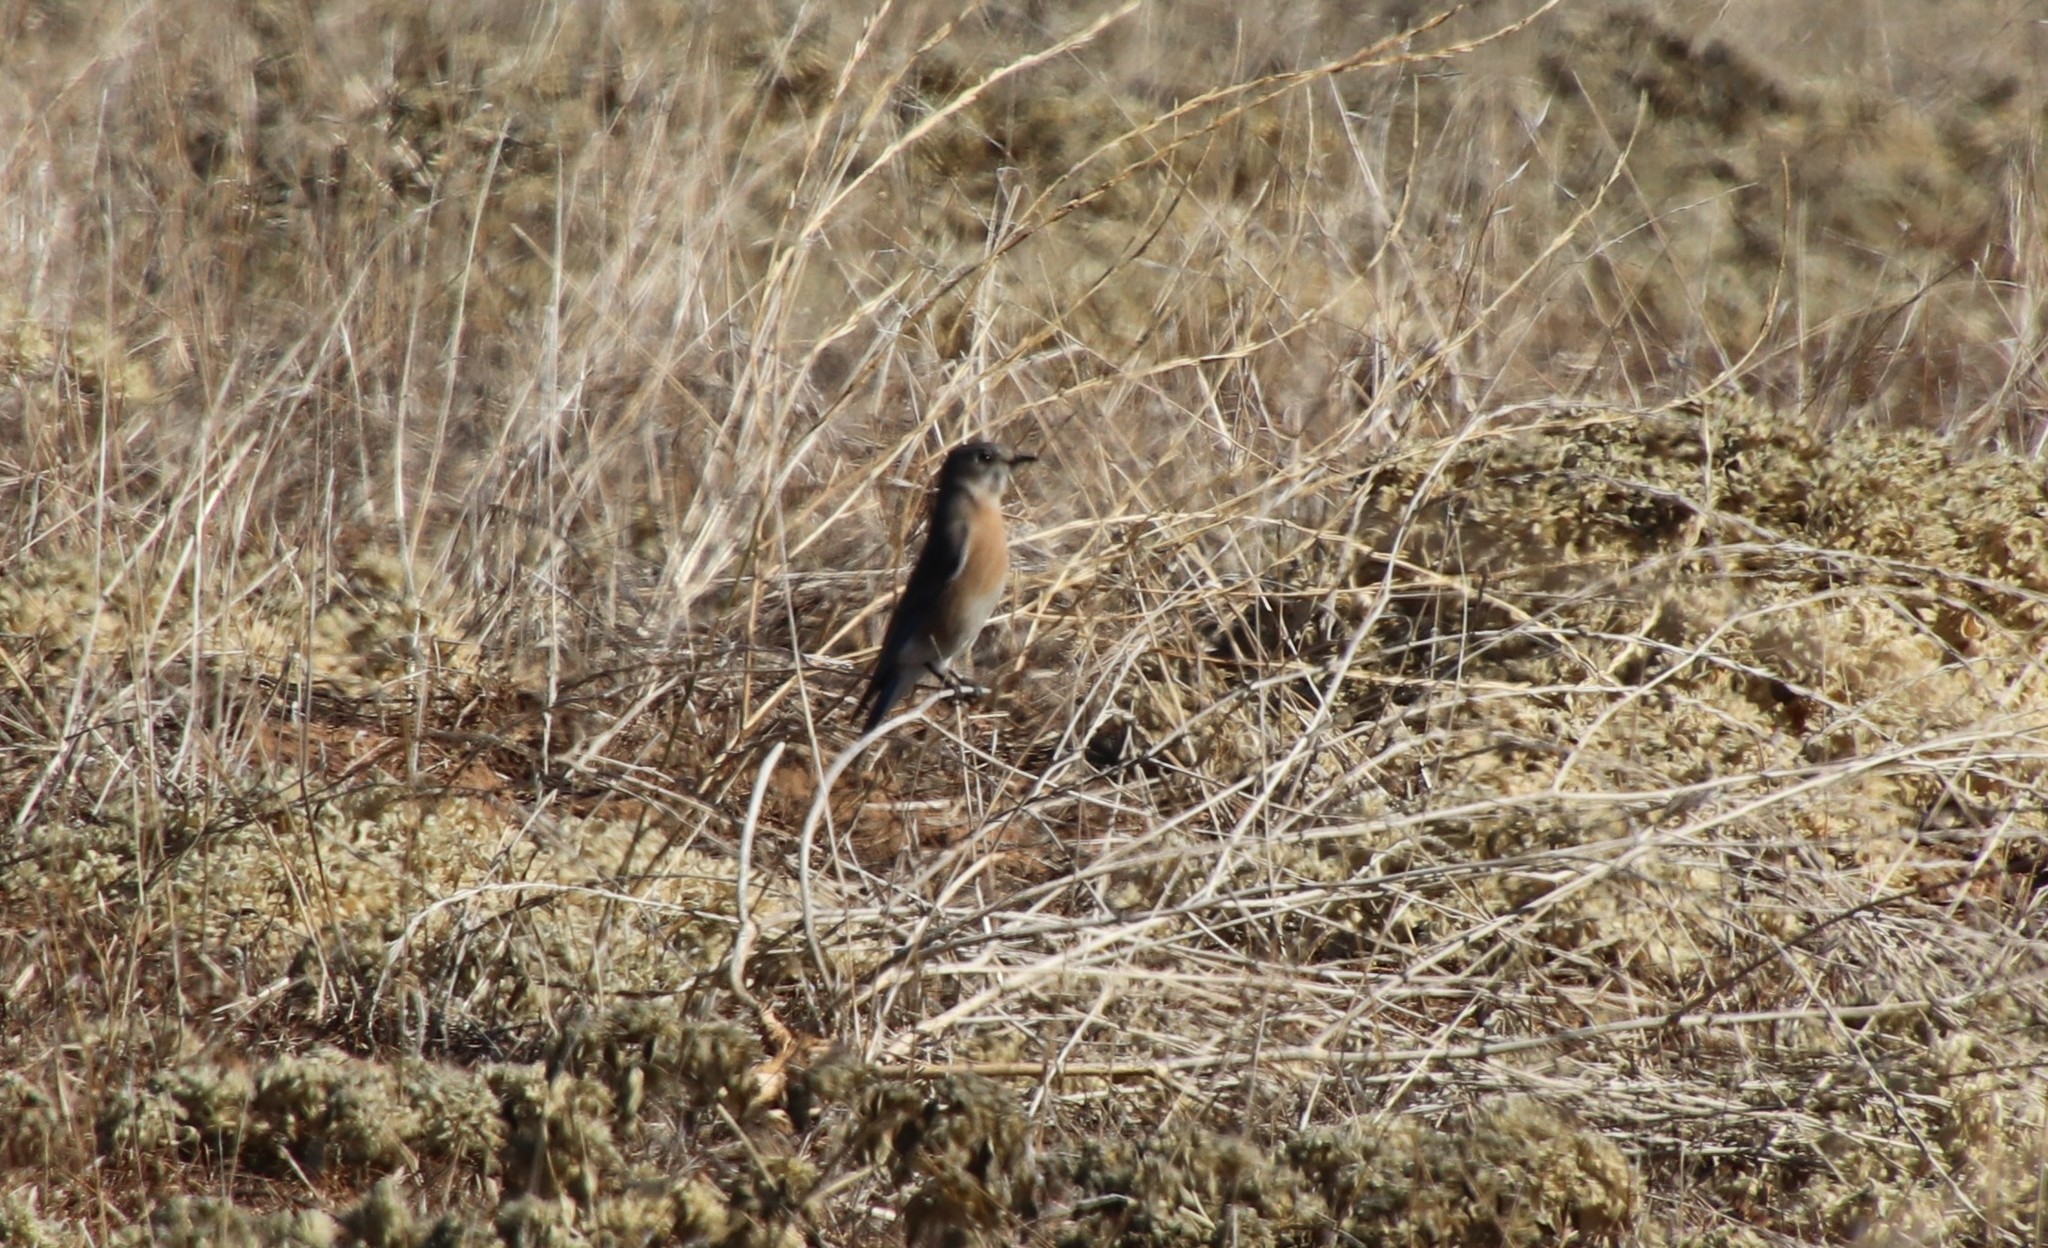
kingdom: Animalia
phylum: Chordata
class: Aves
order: Passeriformes
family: Turdidae
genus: Sialia
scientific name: Sialia mexicana
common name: Western bluebird
